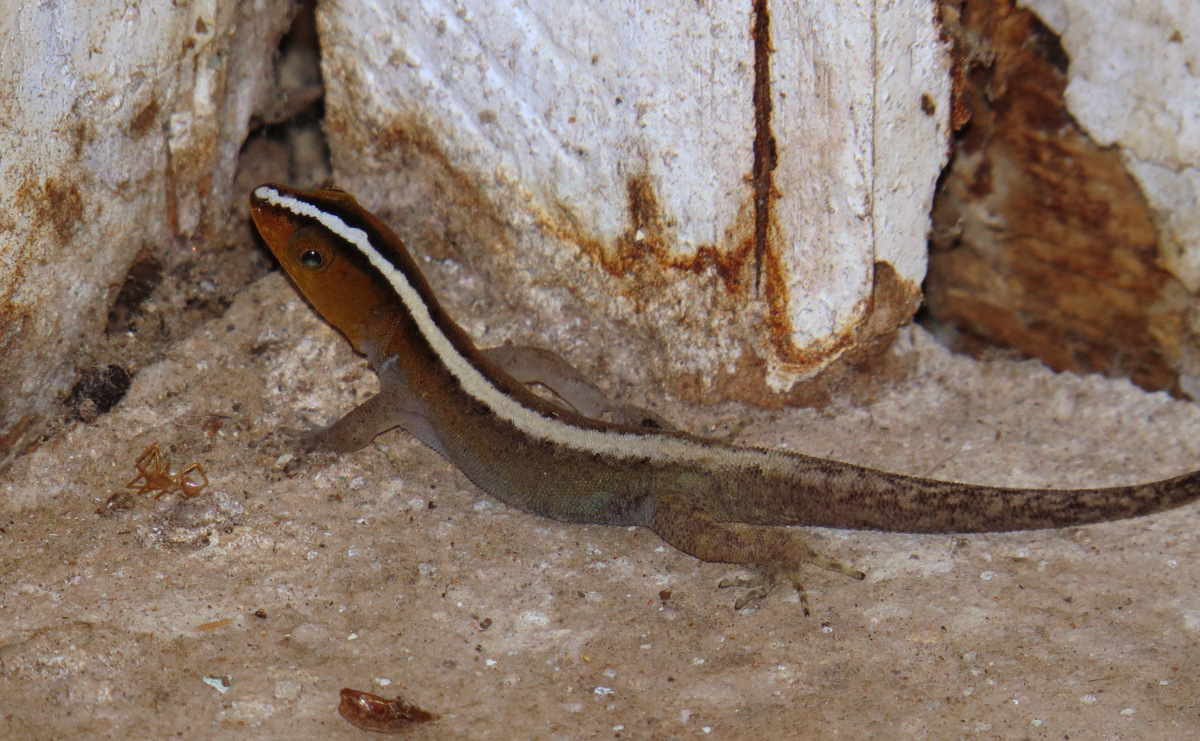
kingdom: Animalia
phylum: Chordata
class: Squamata
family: Sphaerodactylidae
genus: Gonatodes
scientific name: Gonatodes vittatus
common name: Wiegmann's striped gecko
